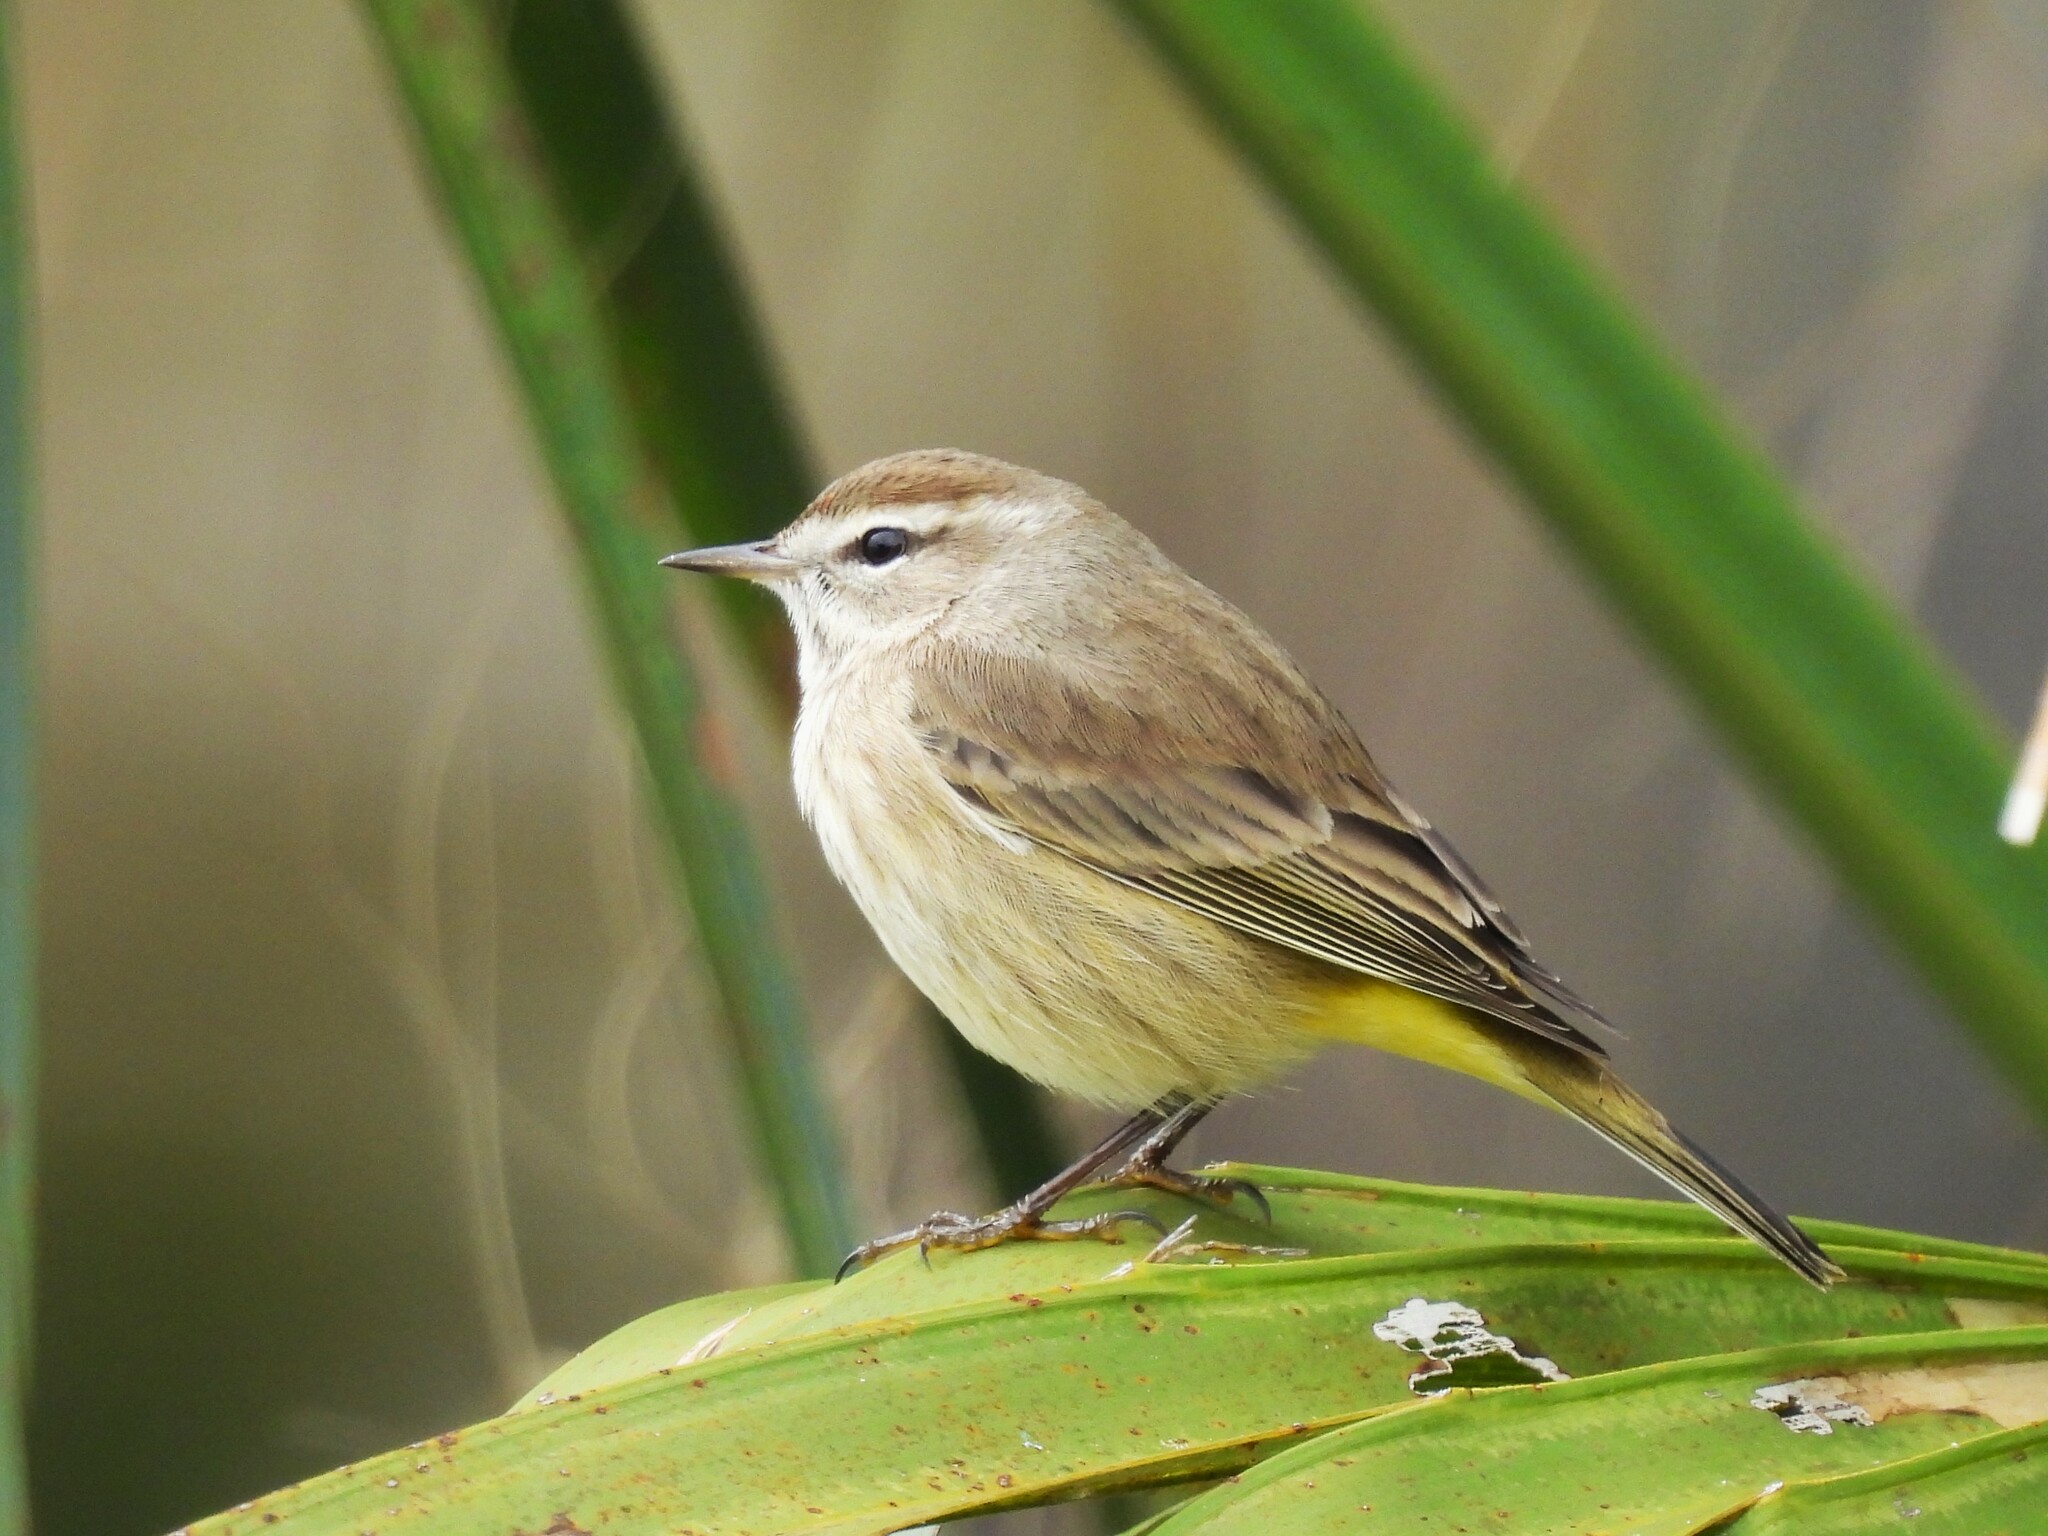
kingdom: Animalia
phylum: Chordata
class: Aves
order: Passeriformes
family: Parulidae
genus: Setophaga
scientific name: Setophaga palmarum
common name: Palm warbler
